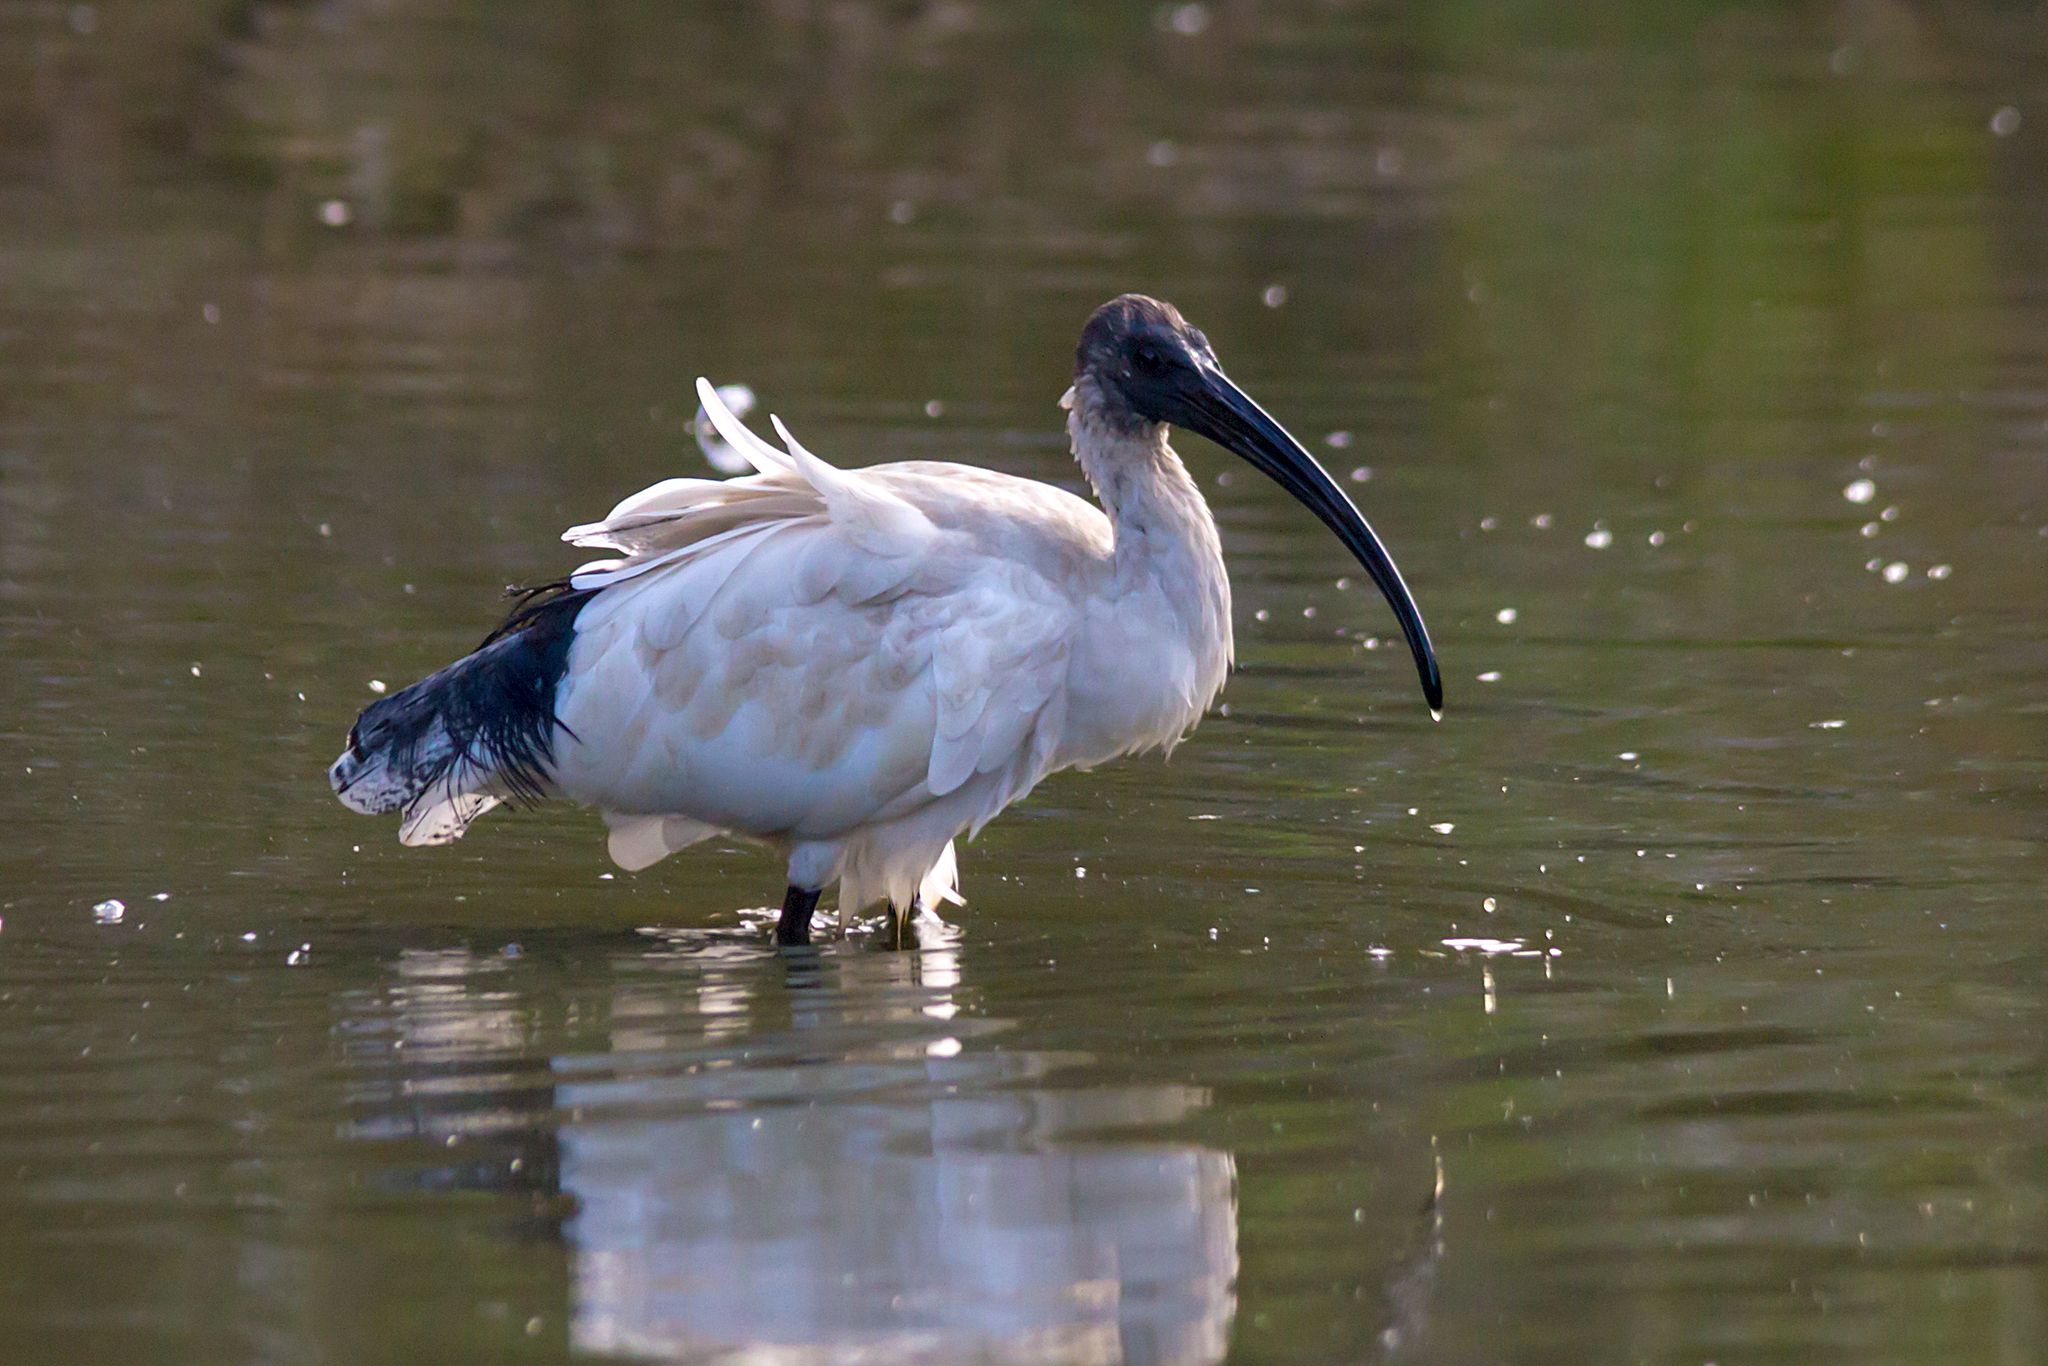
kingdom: Animalia
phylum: Chordata
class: Aves
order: Pelecaniformes
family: Threskiornithidae
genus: Threskiornis
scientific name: Threskiornis molucca
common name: Australian white ibis
